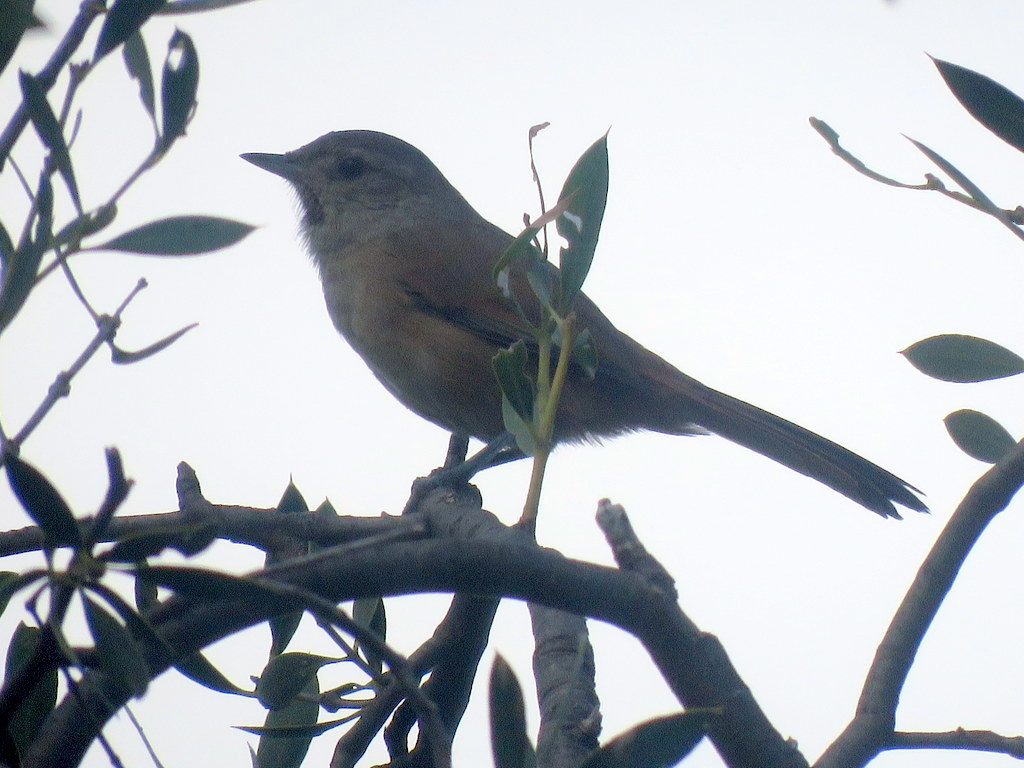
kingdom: Animalia
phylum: Chordata
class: Aves
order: Passeriformes
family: Furnariidae
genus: Asthenes
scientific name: Asthenes baeri
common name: Short-billed canastero
